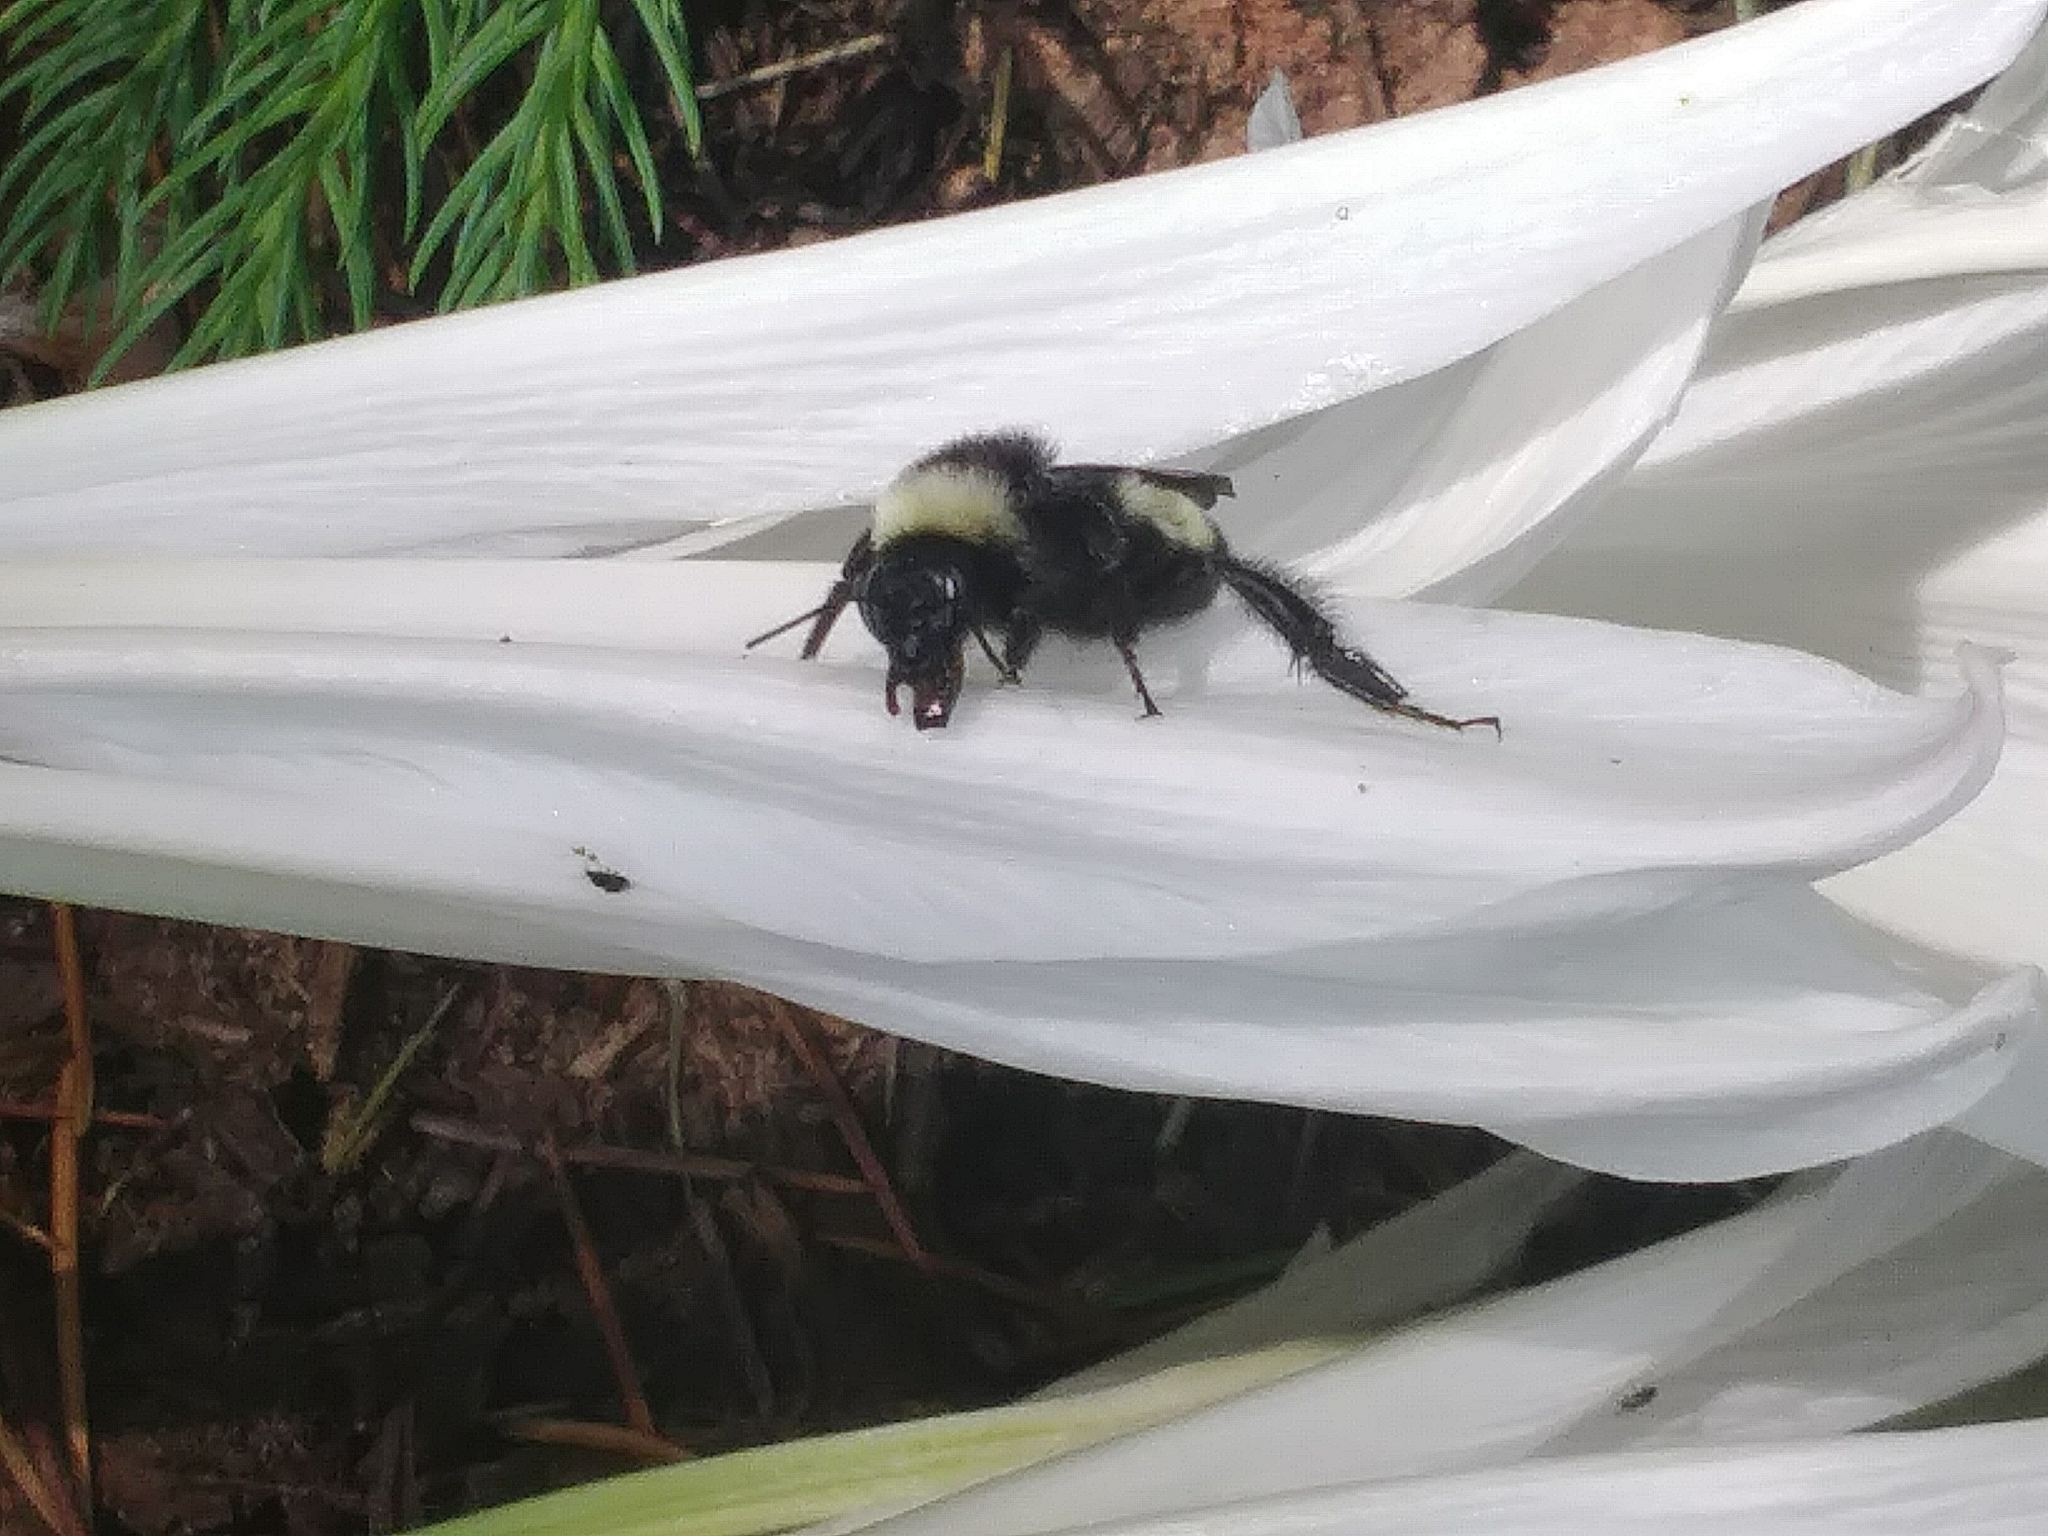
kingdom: Animalia
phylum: Arthropoda
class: Insecta
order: Hymenoptera
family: Apidae
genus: Bombus
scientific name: Bombus pensylvanicus
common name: Bumble bee
